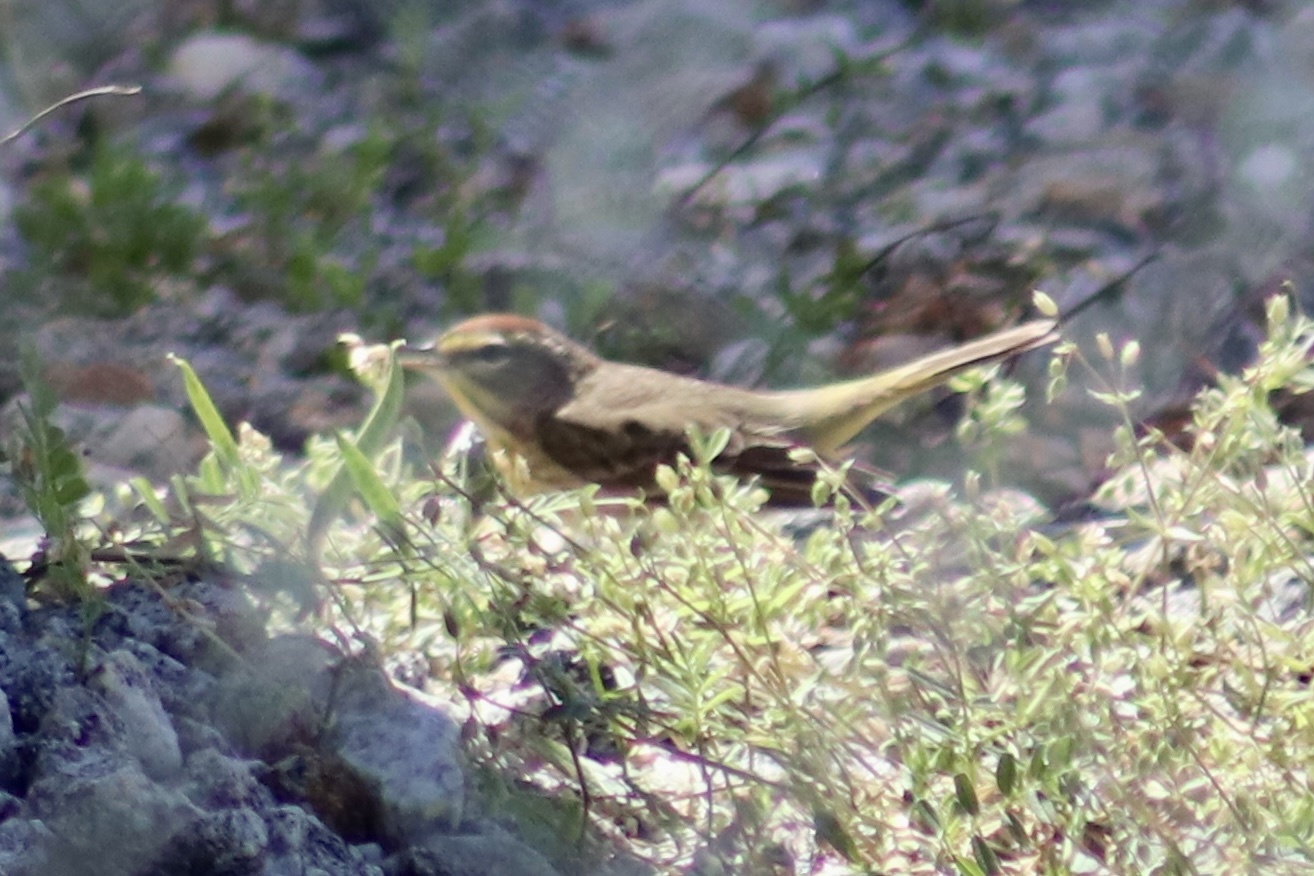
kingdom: Animalia
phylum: Chordata
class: Aves
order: Passeriformes
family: Parulidae
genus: Setophaga
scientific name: Setophaga palmarum
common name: Palm warbler
